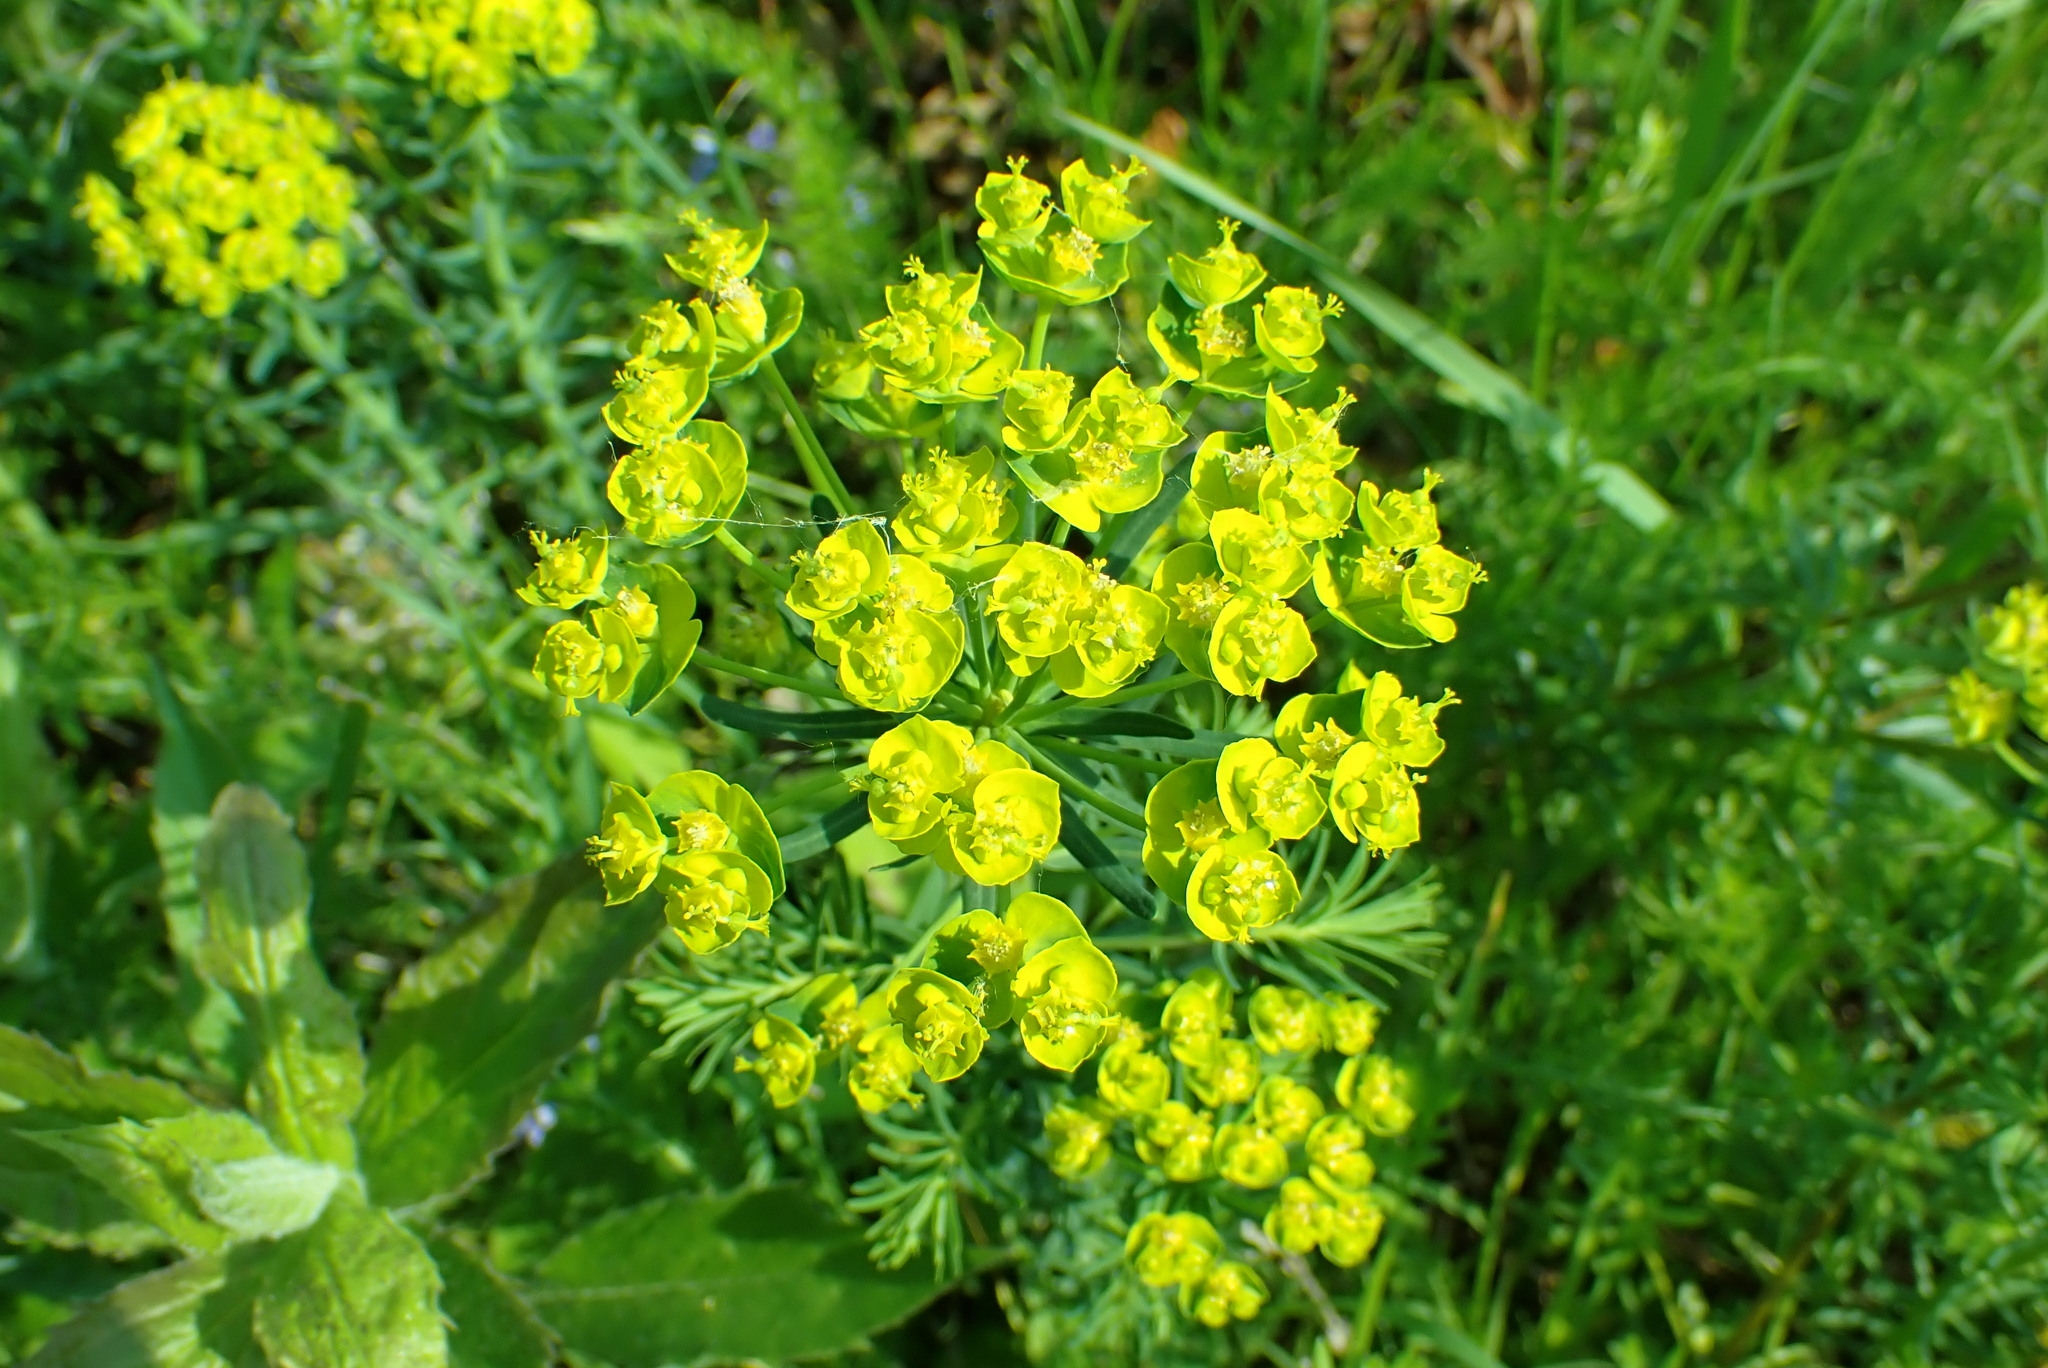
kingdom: Plantae
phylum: Tracheophyta
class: Magnoliopsida
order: Malpighiales
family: Euphorbiaceae
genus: Euphorbia
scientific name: Euphorbia cyparissias
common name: Cypress spurge
